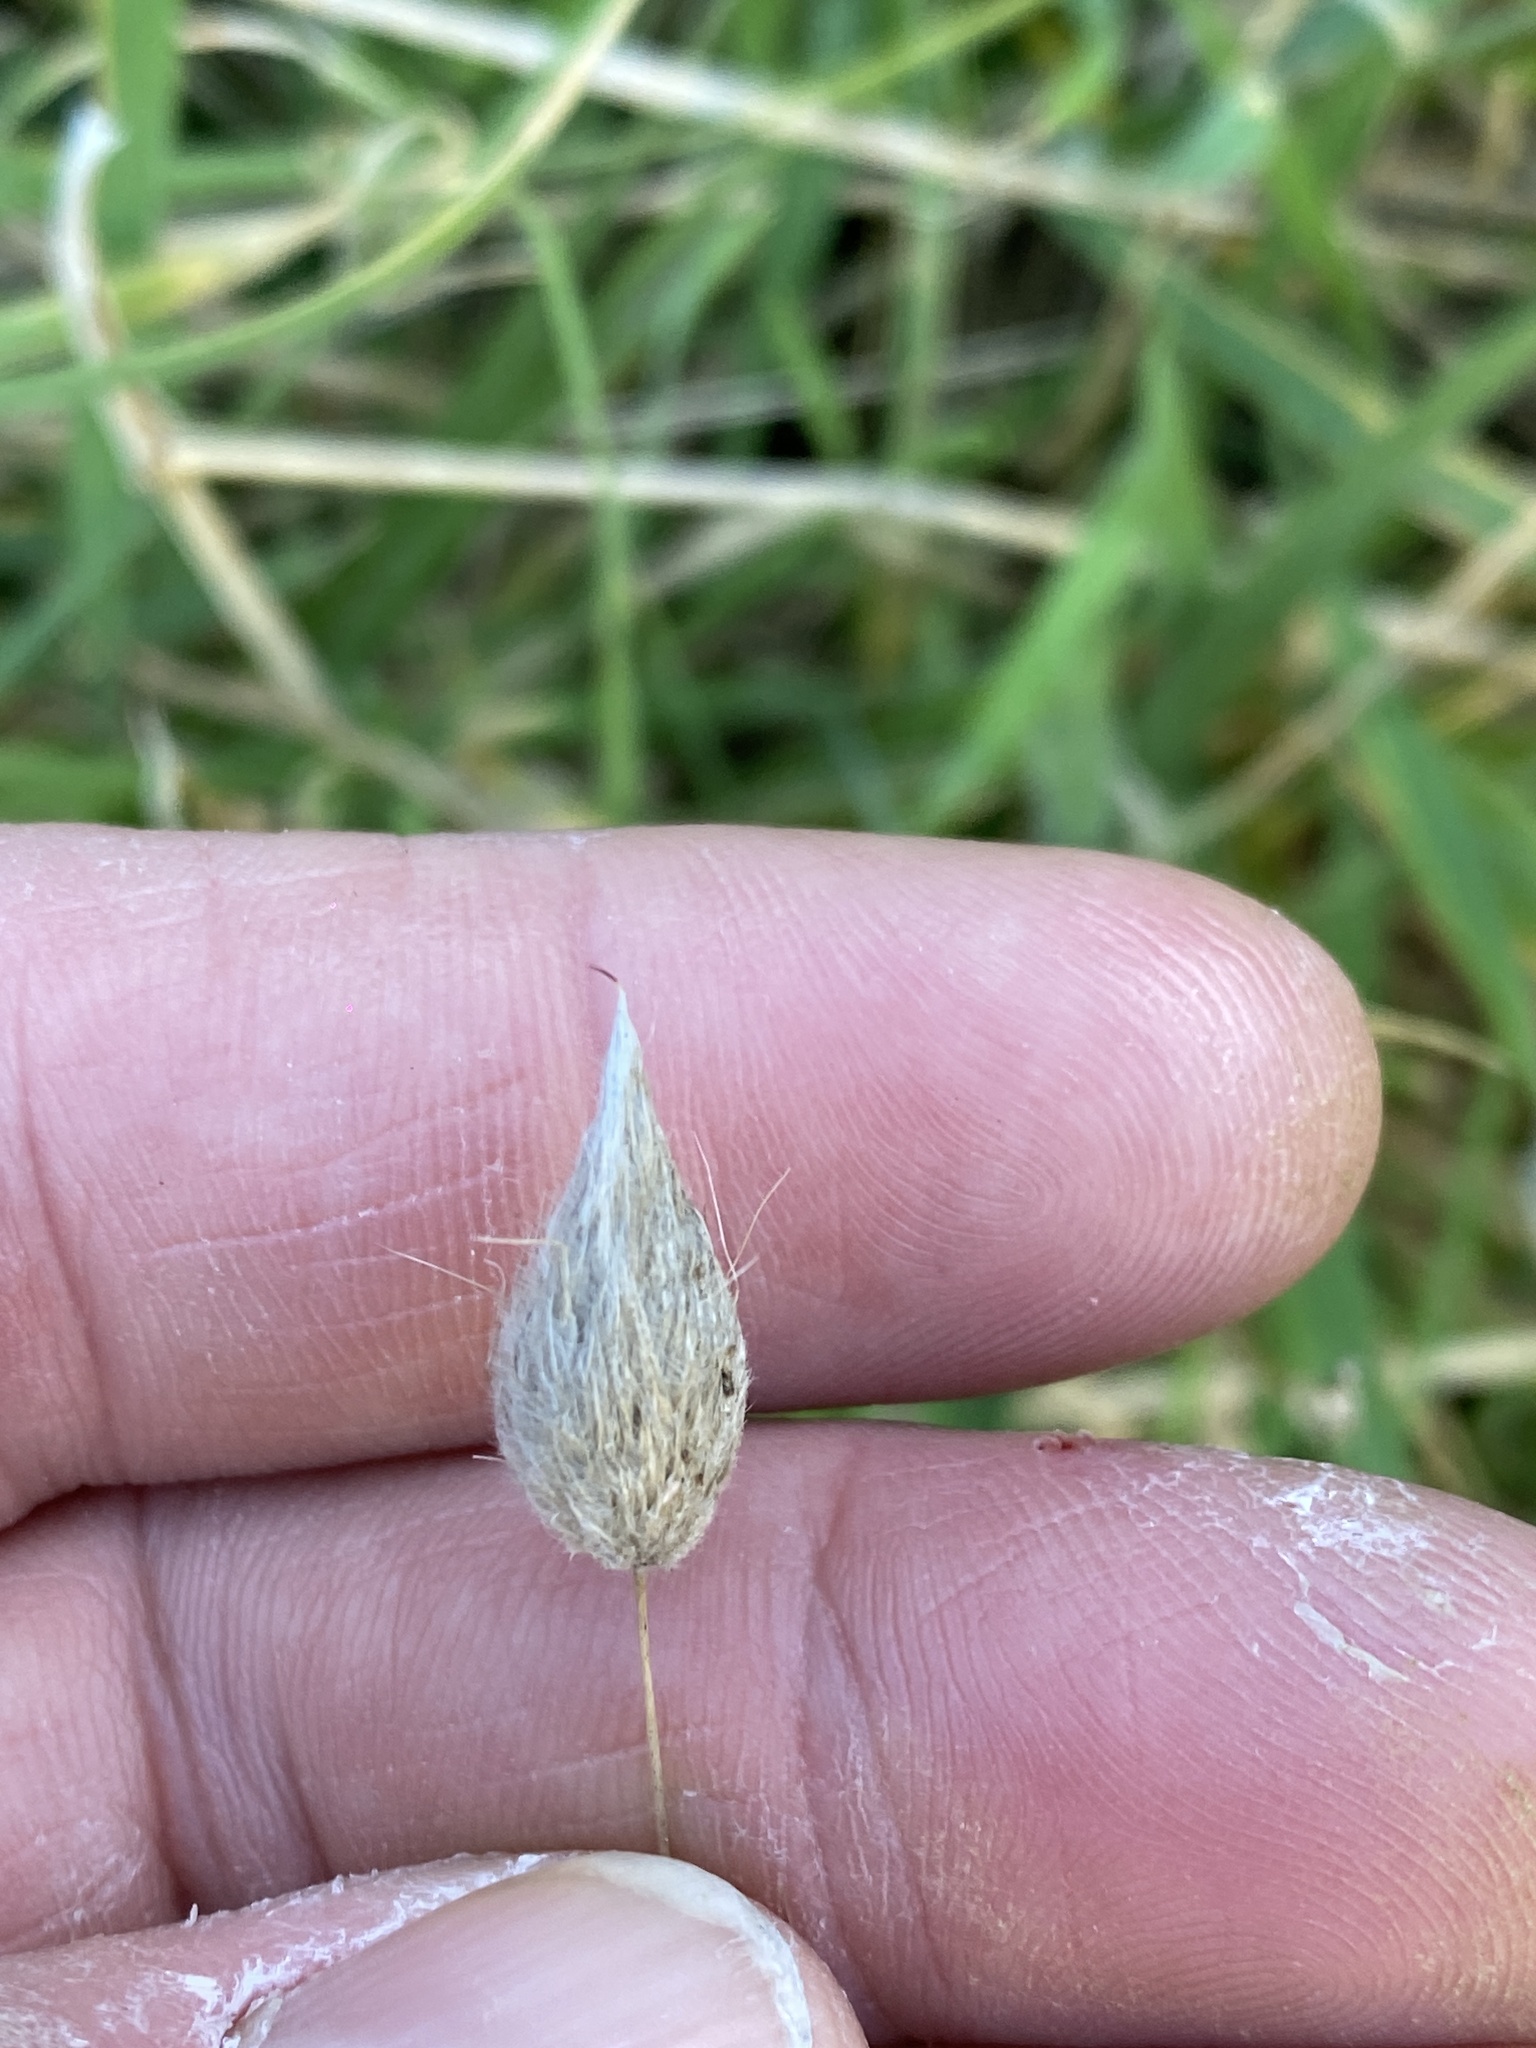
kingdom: Plantae
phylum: Tracheophyta
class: Liliopsida
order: Poales
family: Poaceae
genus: Lagurus
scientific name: Lagurus ovatus
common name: Hare's-tail
